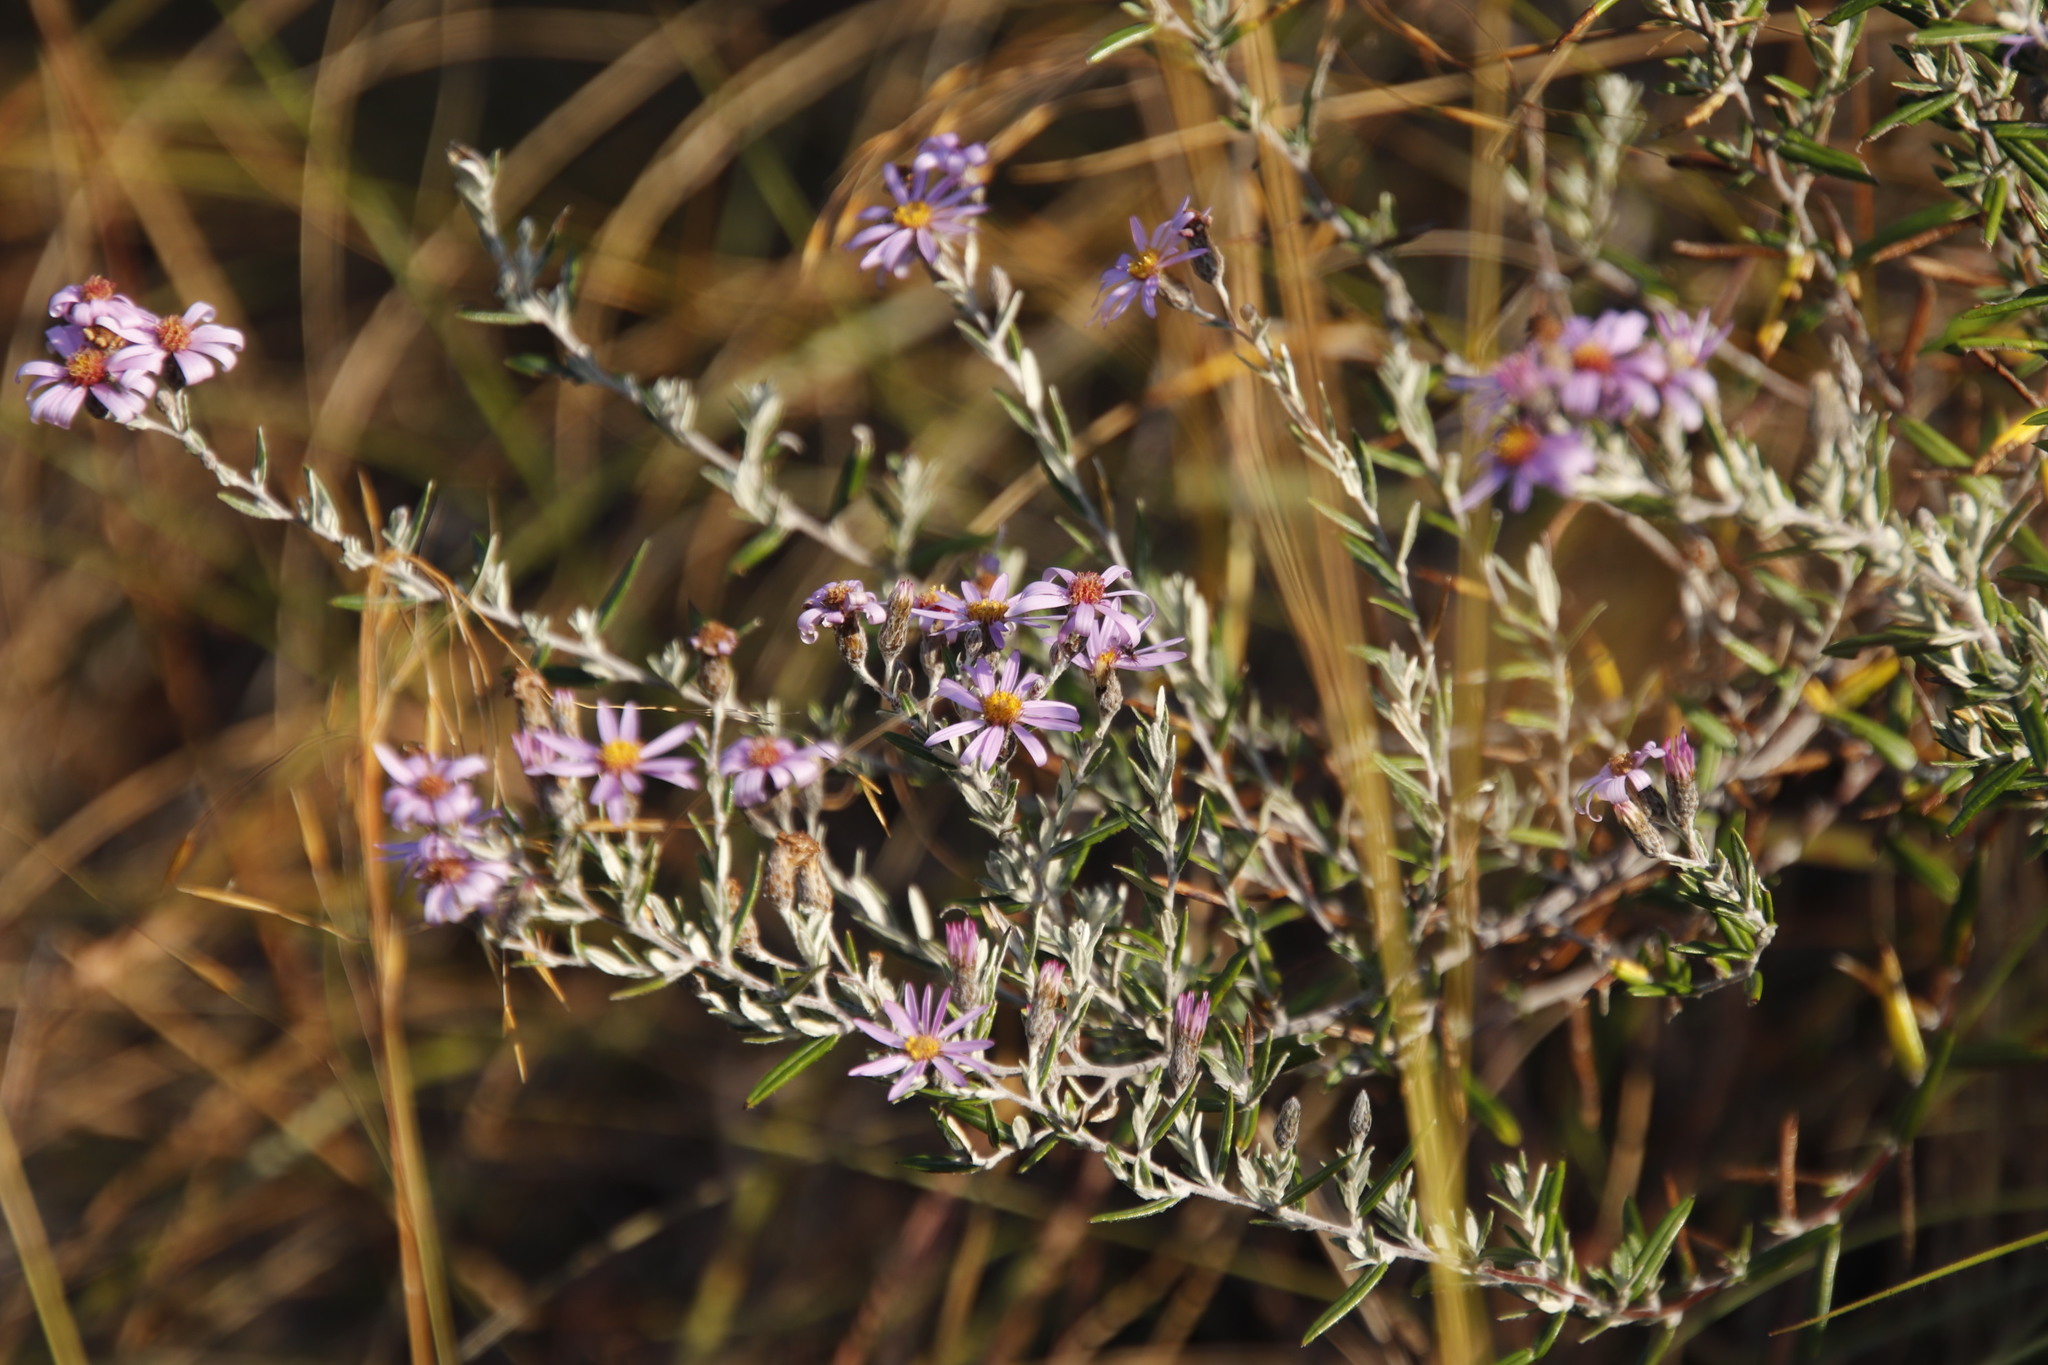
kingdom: Plantae
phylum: Tracheophyta
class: Magnoliopsida
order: Asterales
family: Asteraceae
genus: Athrixia
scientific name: Athrixia elata
